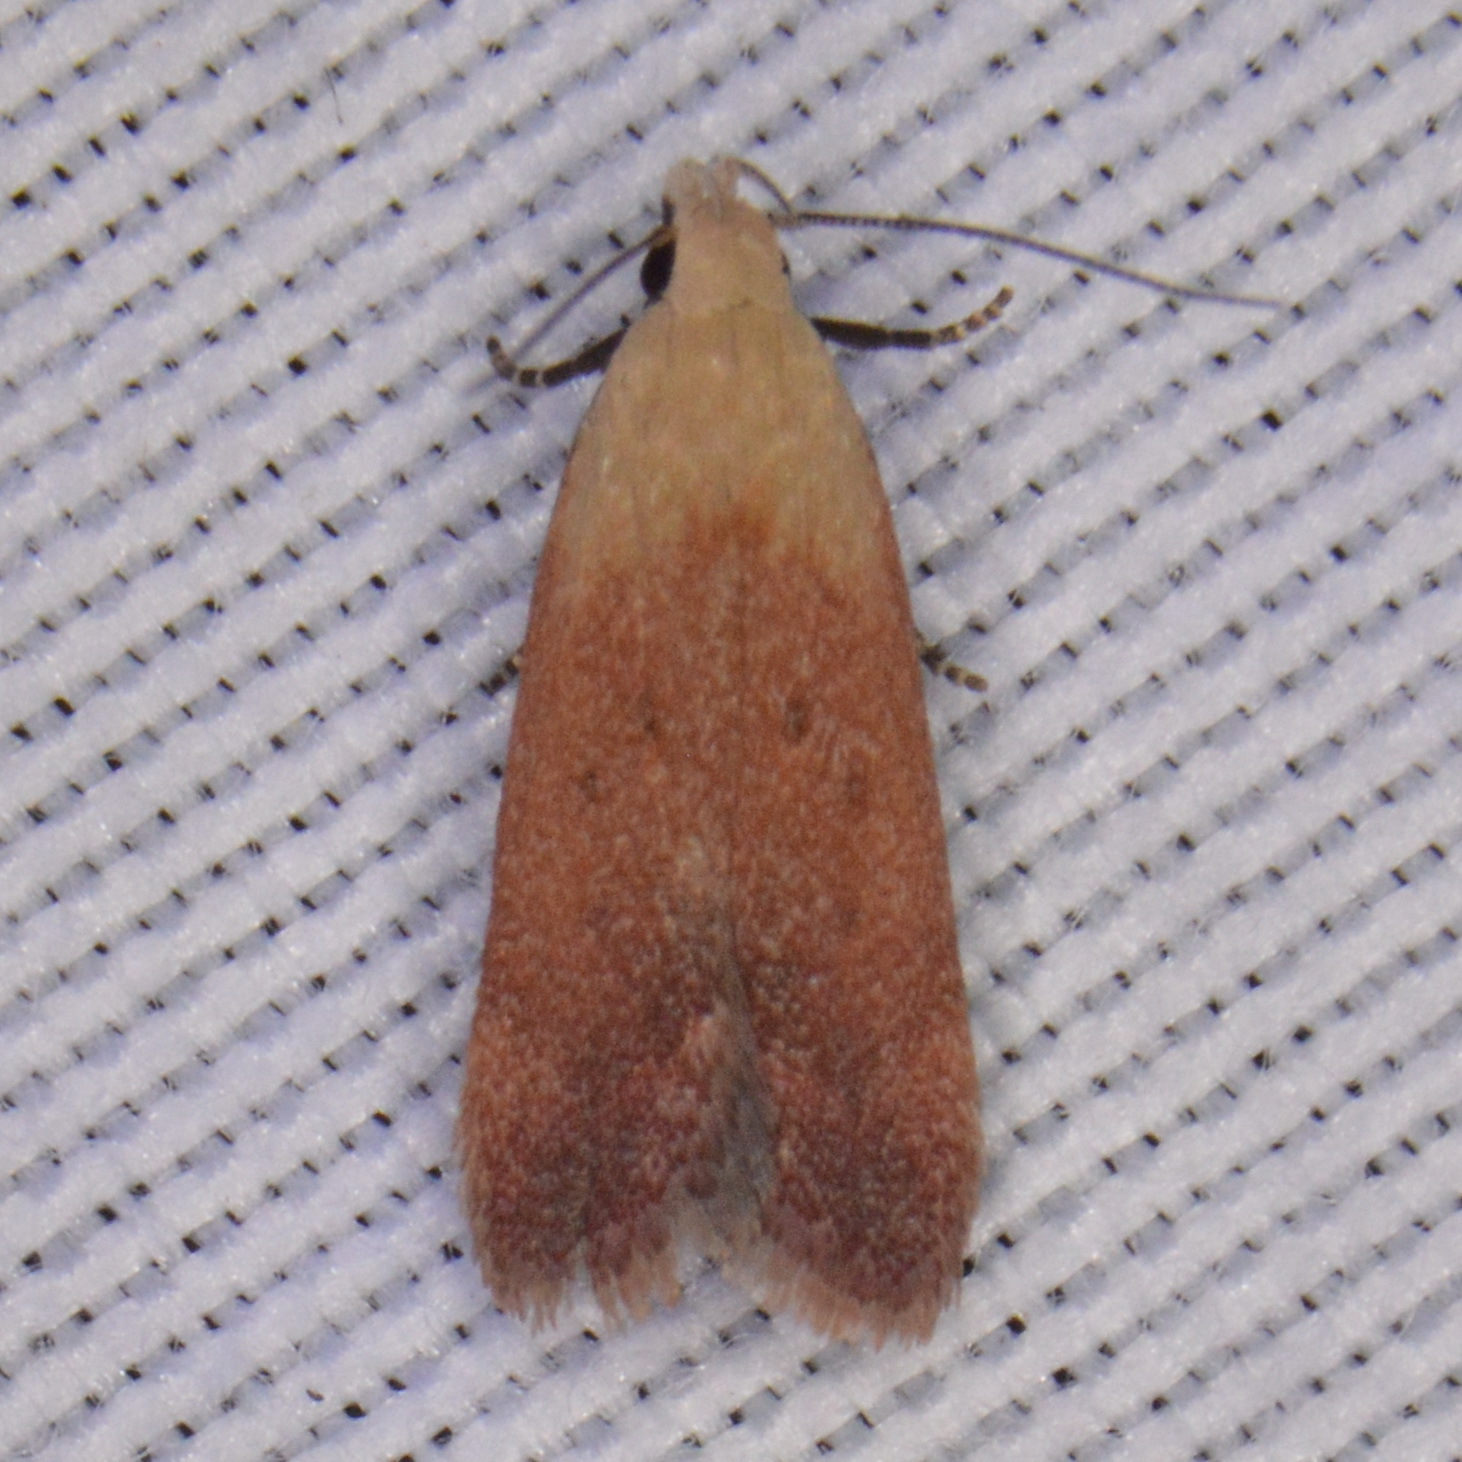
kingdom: Animalia
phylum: Arthropoda
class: Insecta
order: Lepidoptera
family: Gelechiidae
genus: Anacampsis
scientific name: Anacampsis fullonella
